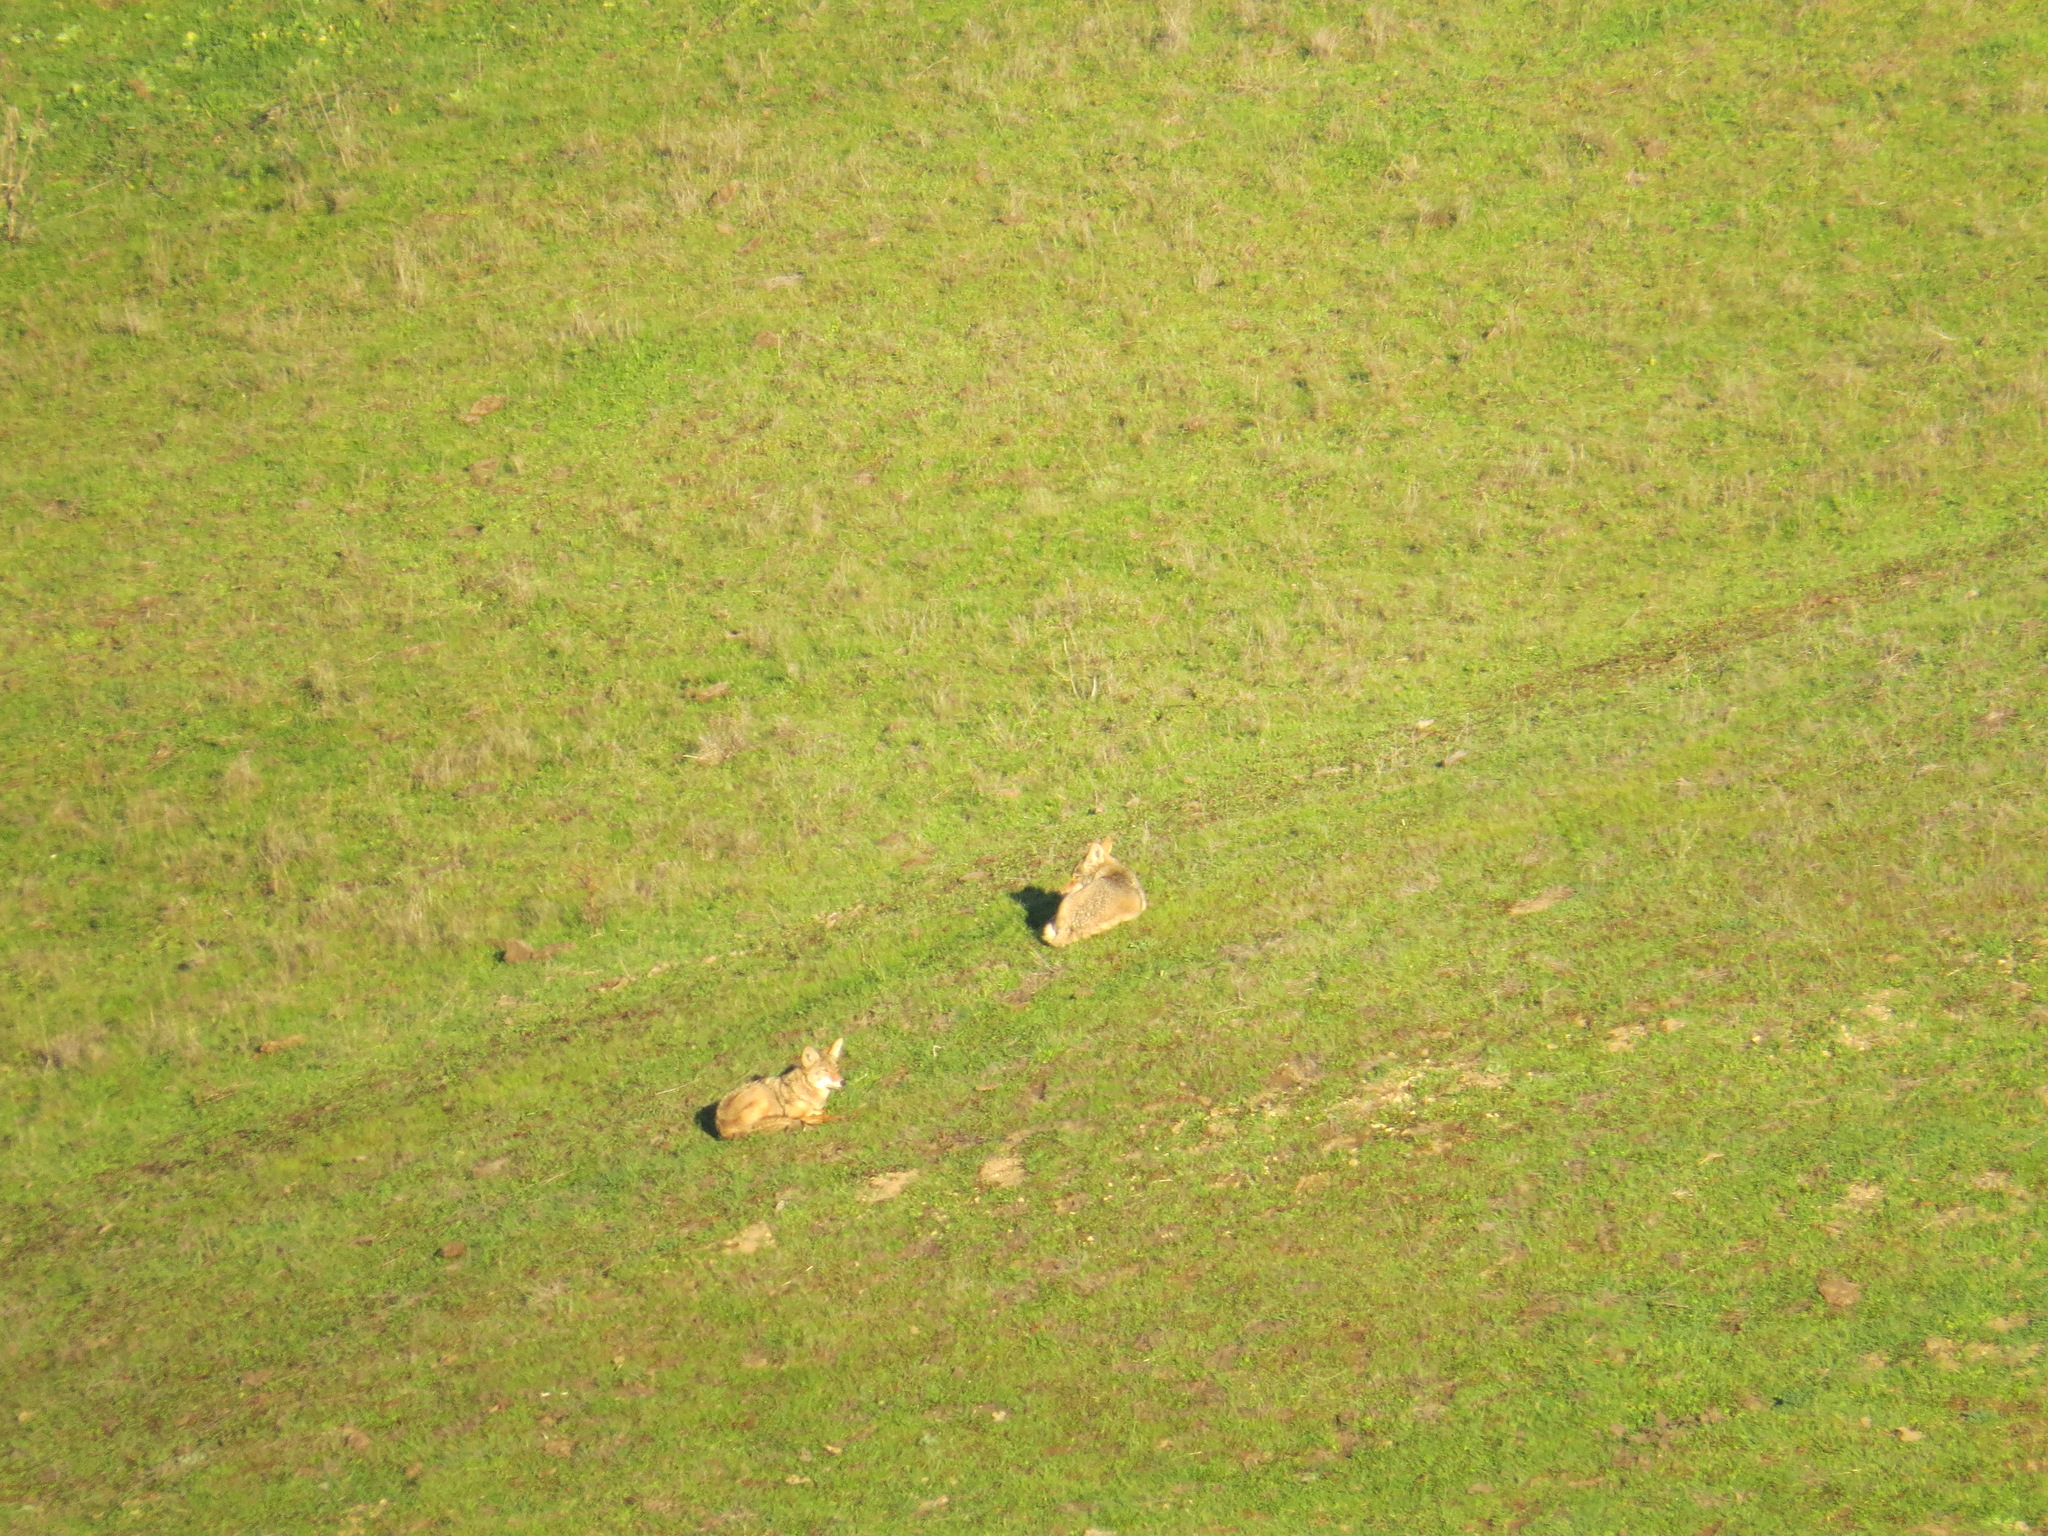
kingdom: Animalia
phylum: Chordata
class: Mammalia
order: Carnivora
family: Canidae
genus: Canis
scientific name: Canis latrans
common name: Coyote
